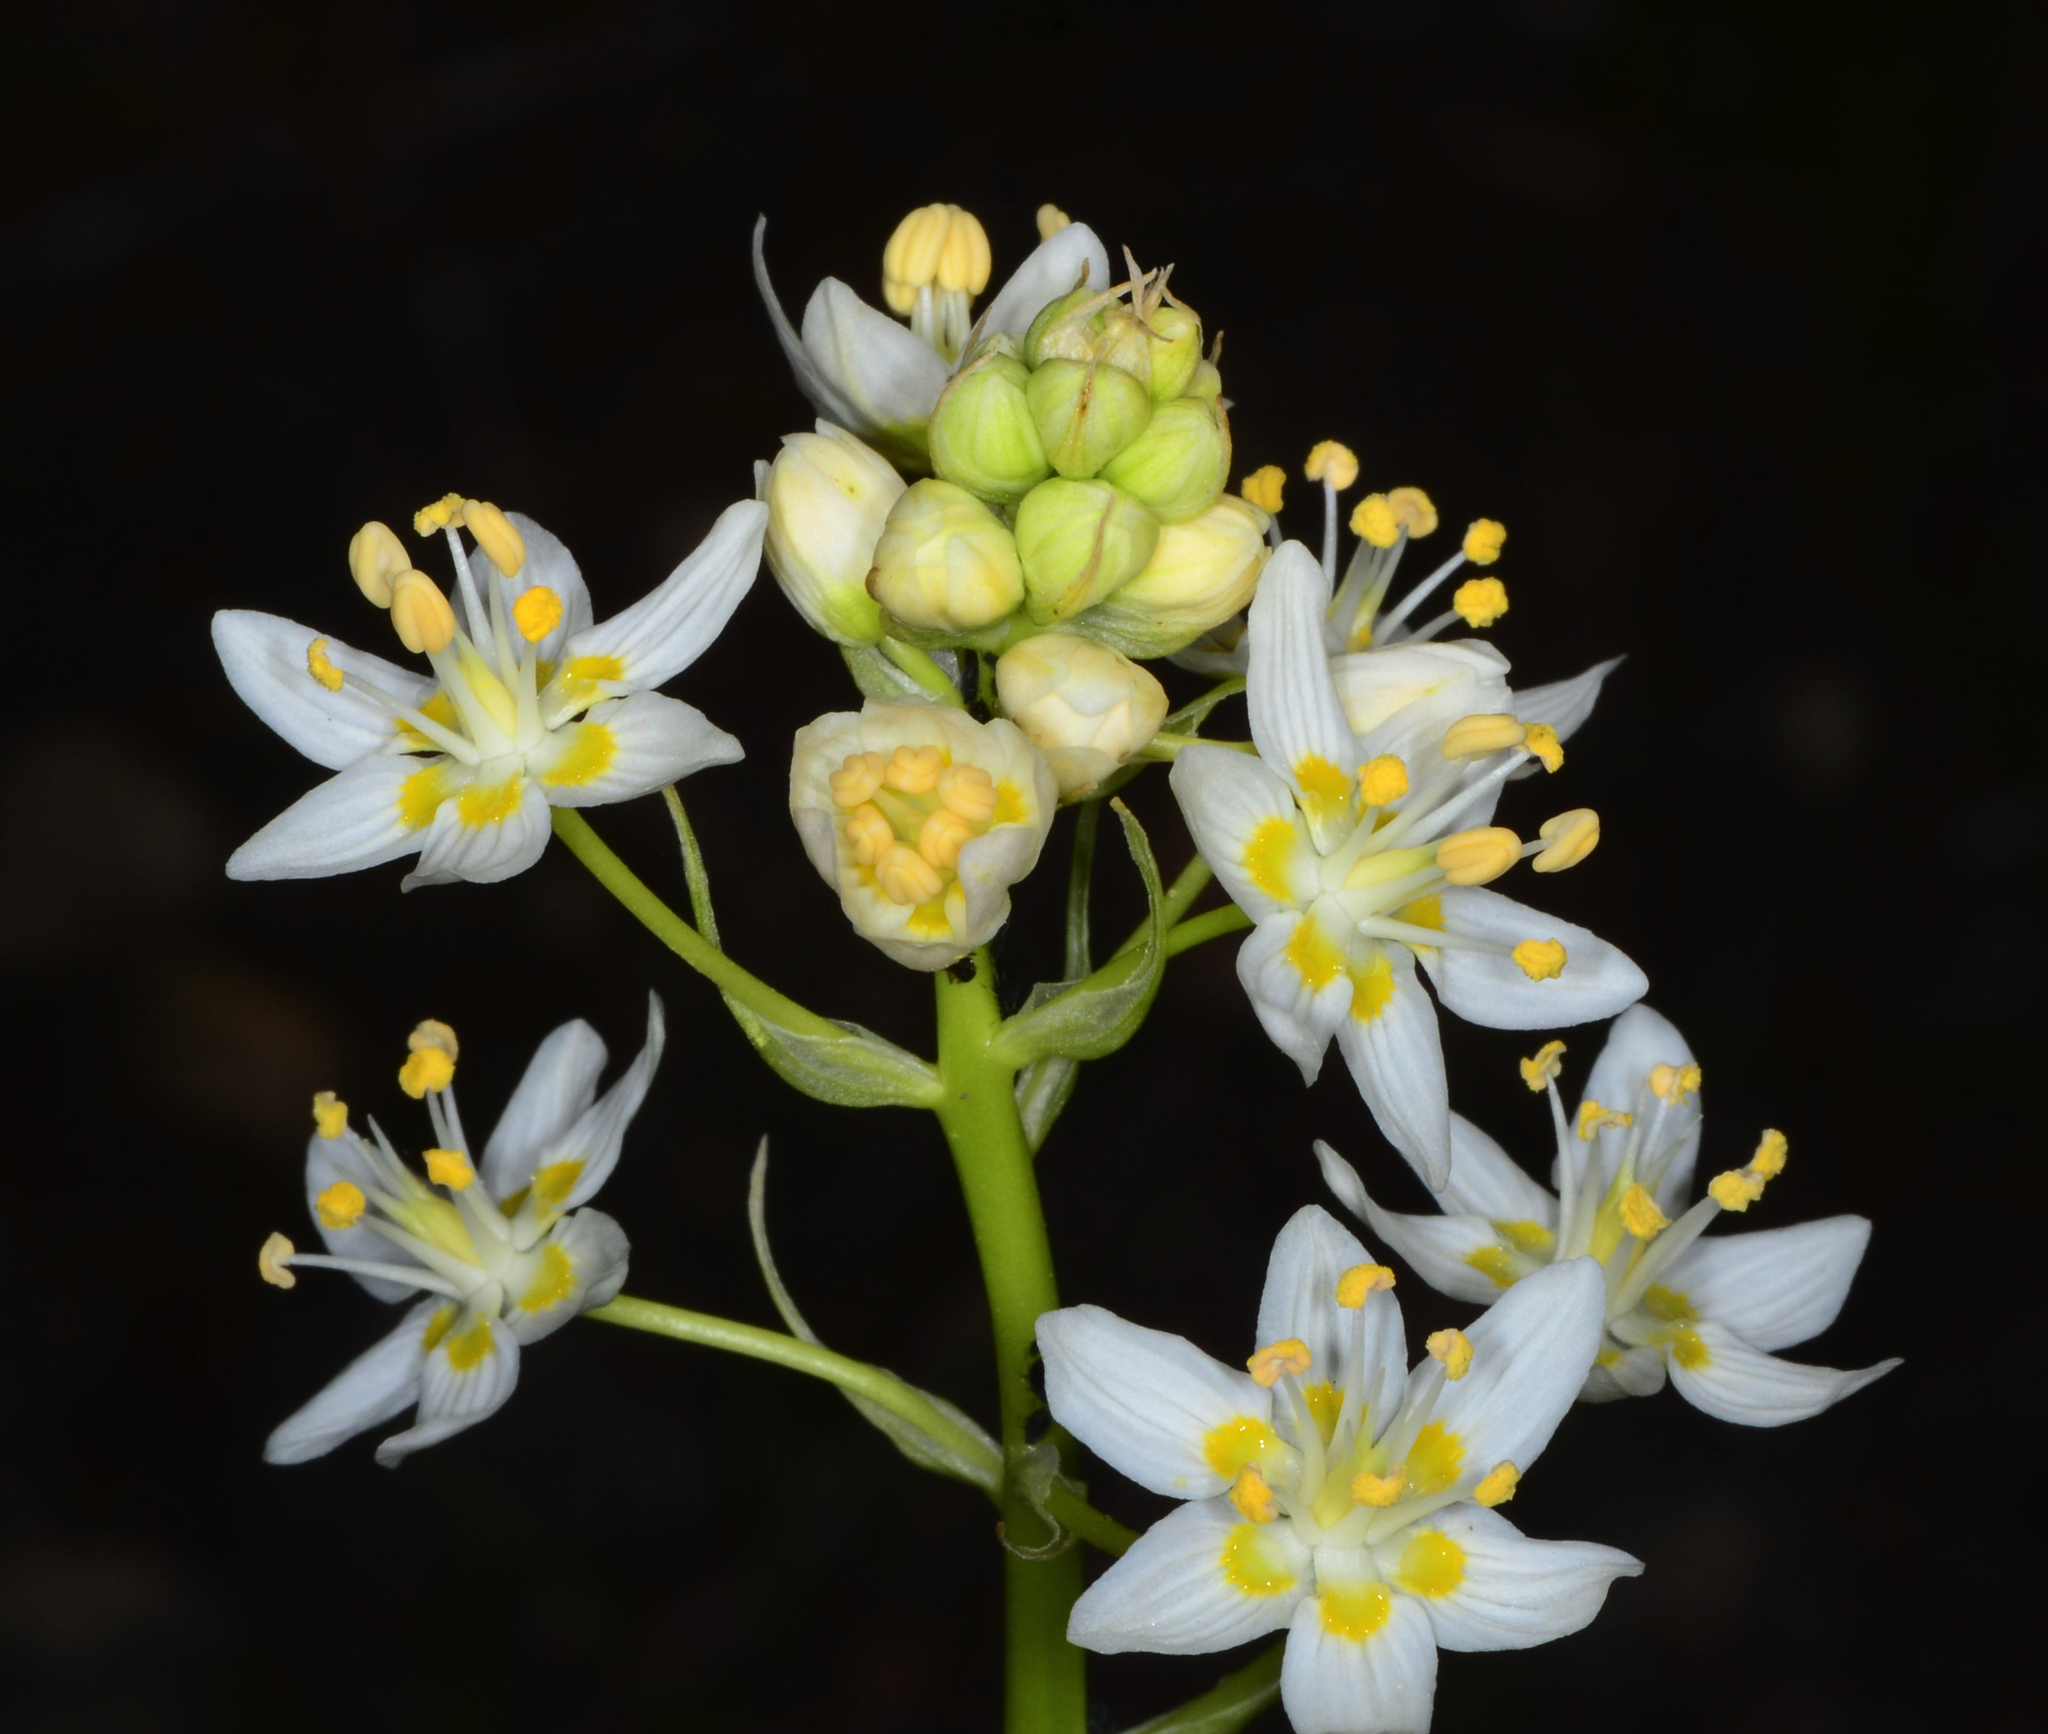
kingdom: Plantae
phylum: Tracheophyta
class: Liliopsida
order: Liliales
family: Melanthiaceae
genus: Toxicoscordion
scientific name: Toxicoscordion fremontii
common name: Fremont's death camas
